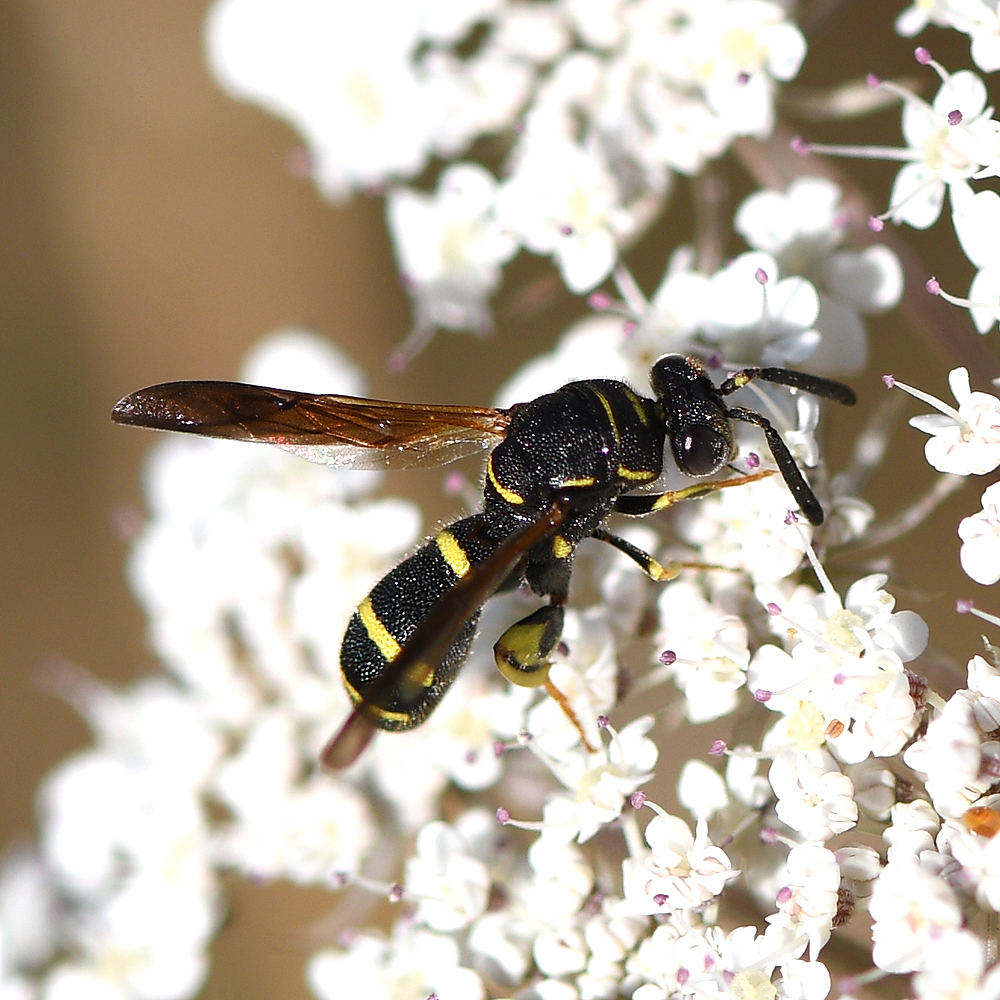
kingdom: Animalia
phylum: Arthropoda
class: Insecta
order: Hymenoptera
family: Leucospidae
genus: Leucospis
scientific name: Leucospis affinis
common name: Wasp
